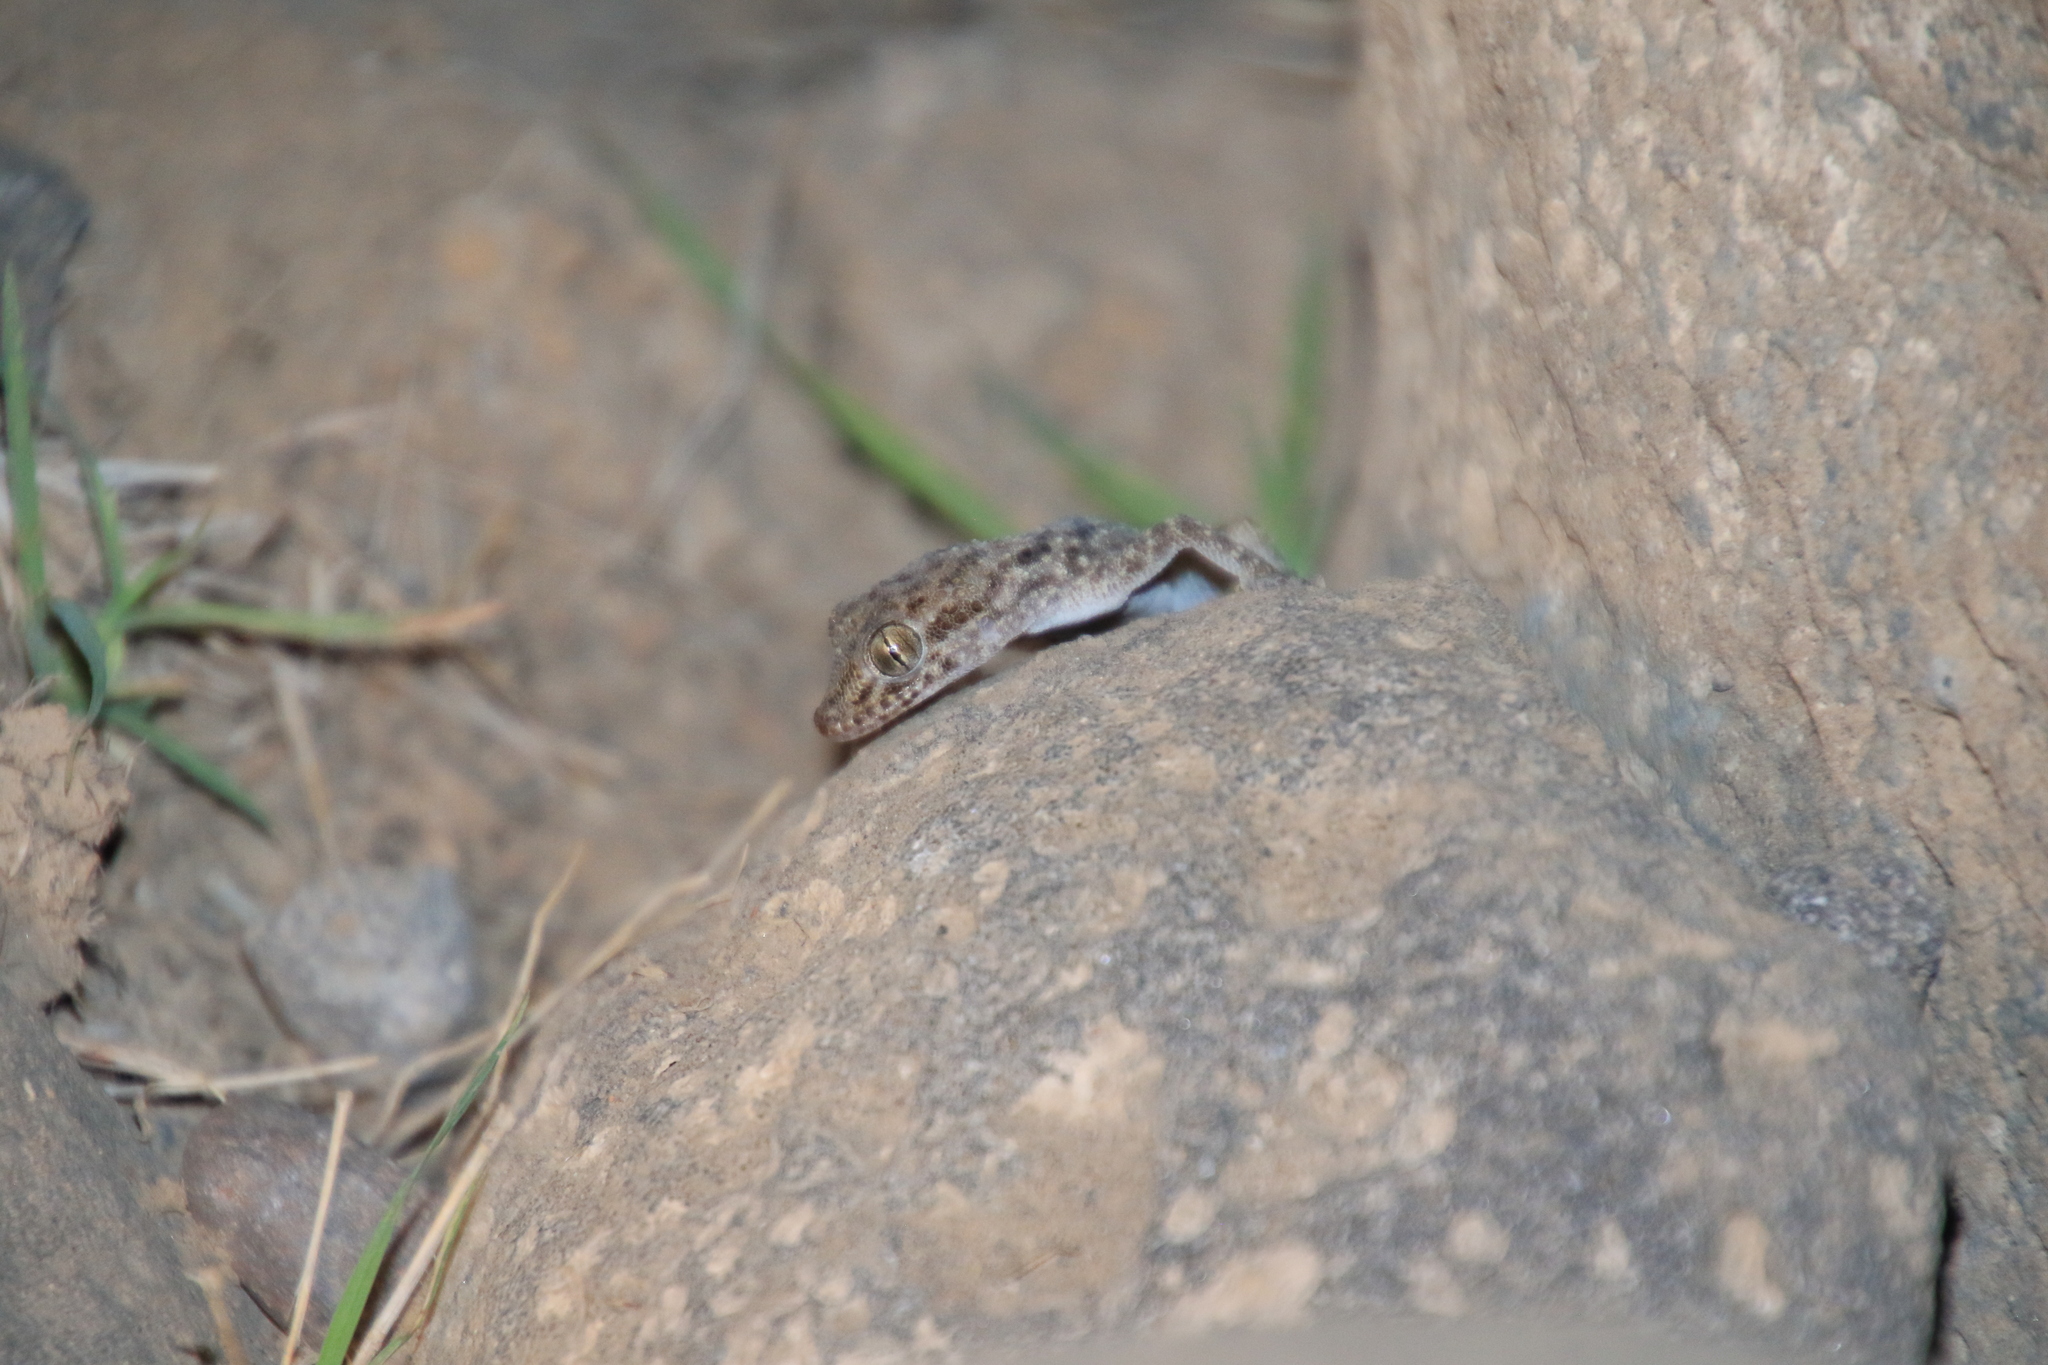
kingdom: Animalia
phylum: Chordata
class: Squamata
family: Gekkonidae
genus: Cyrtopodion
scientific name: Cyrtopodion scabrum
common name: Rough-tailed gecko
